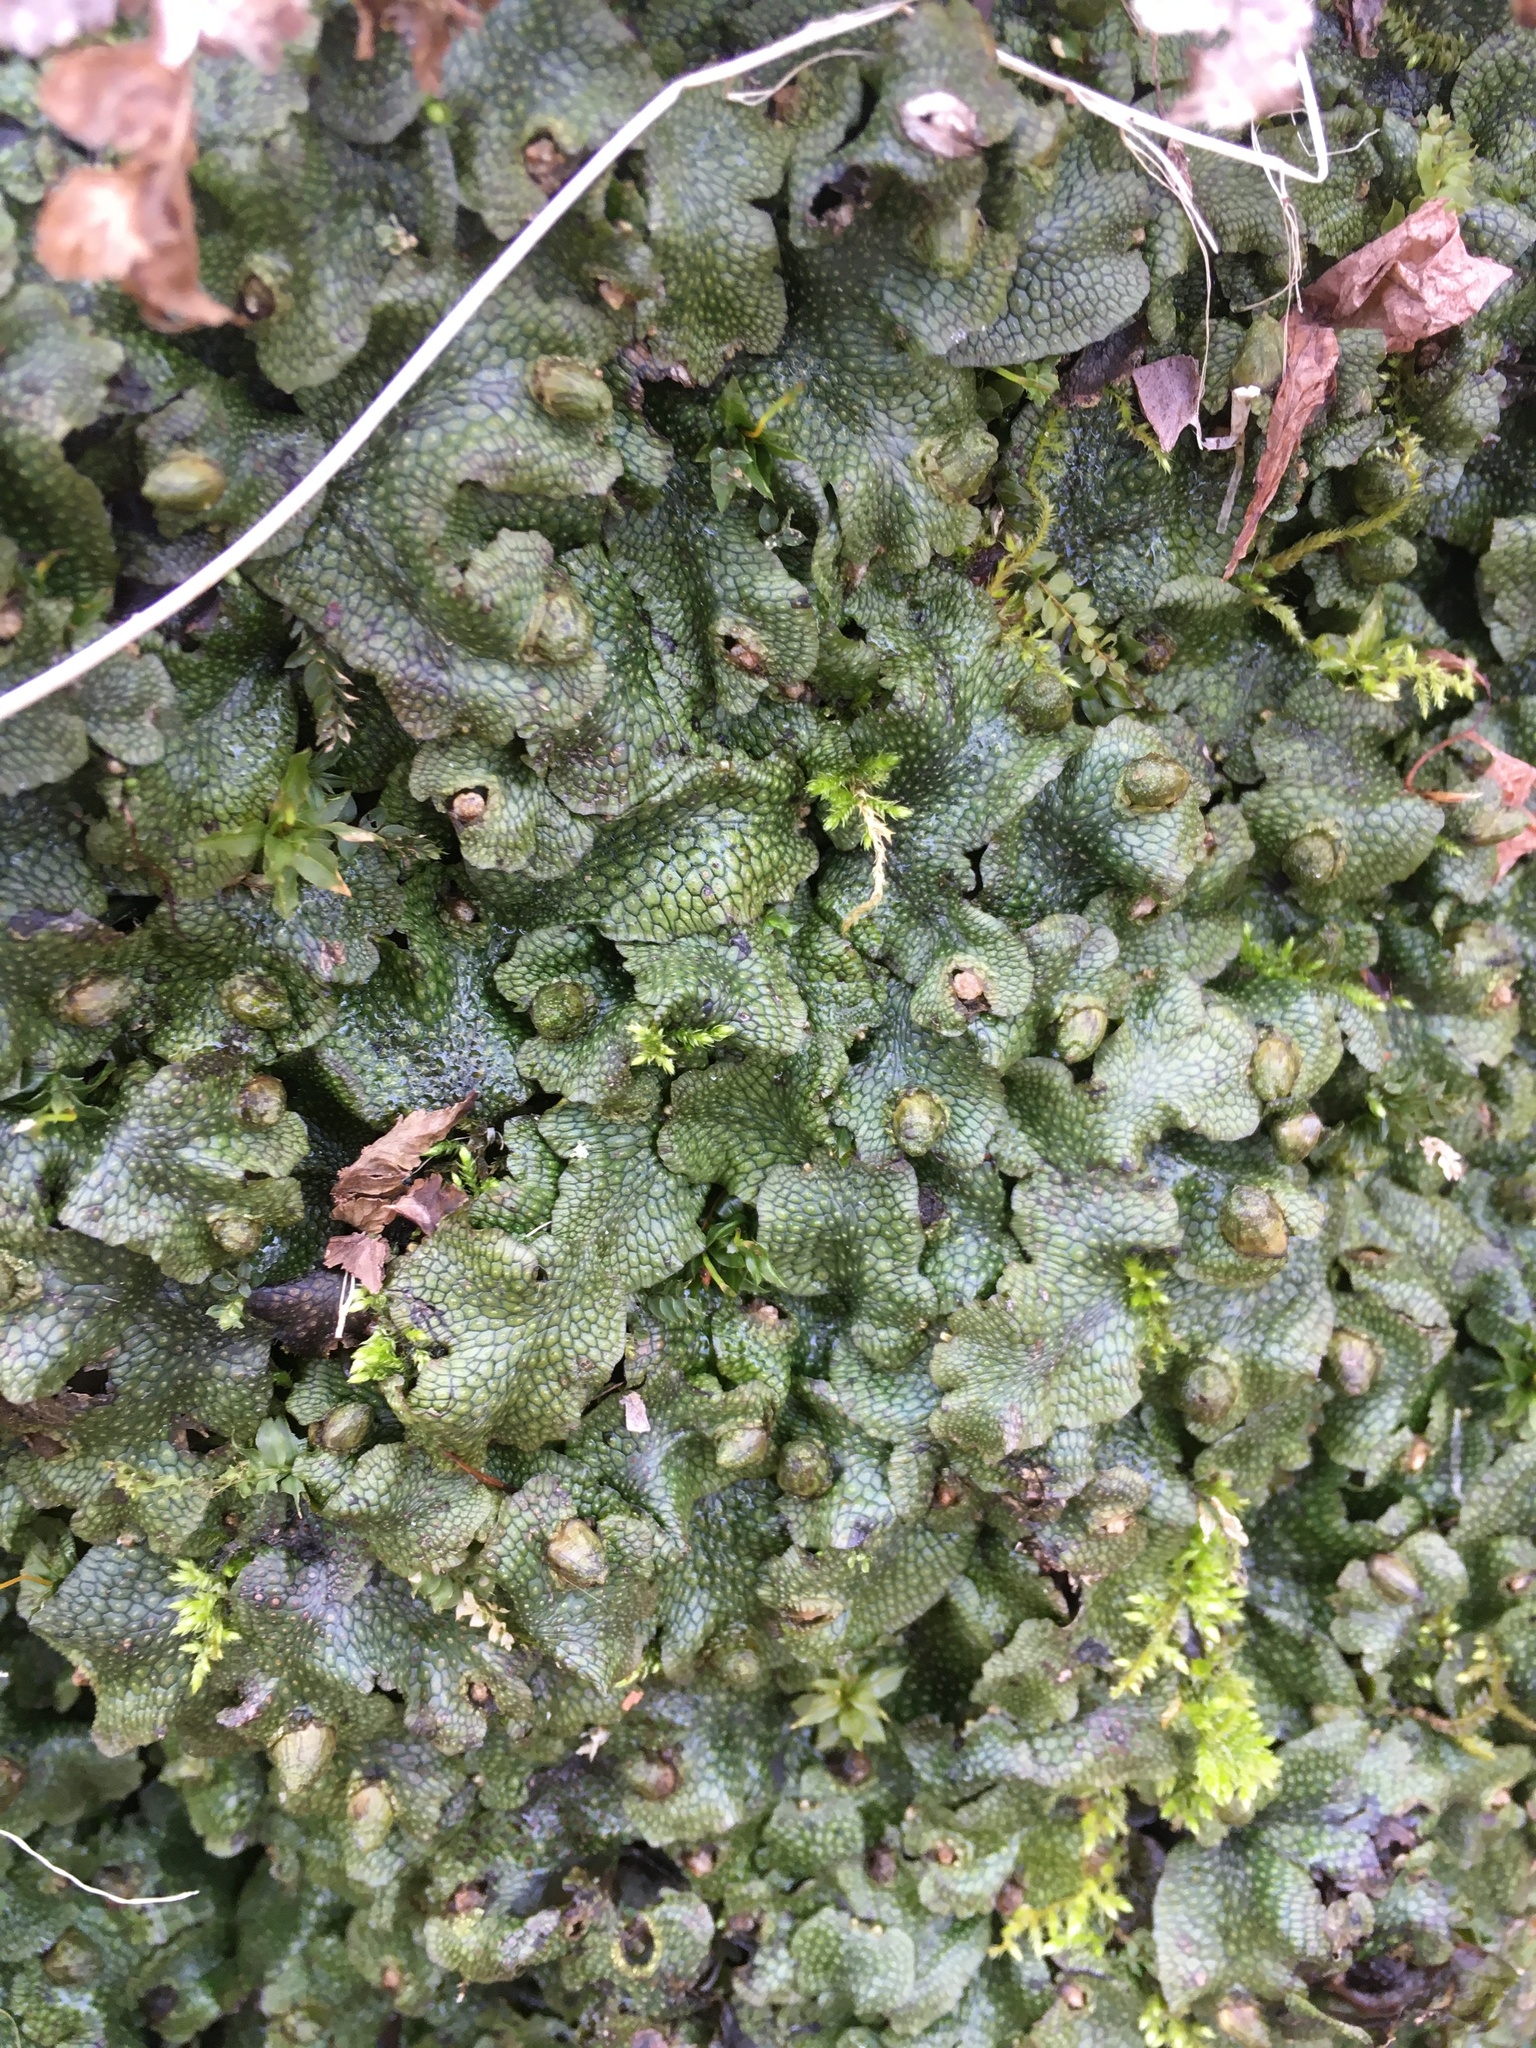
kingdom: Plantae
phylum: Marchantiophyta
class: Marchantiopsida
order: Marchantiales
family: Conocephalaceae
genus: Conocephalum
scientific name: Conocephalum salebrosum
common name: Cat-tongue liverwort
